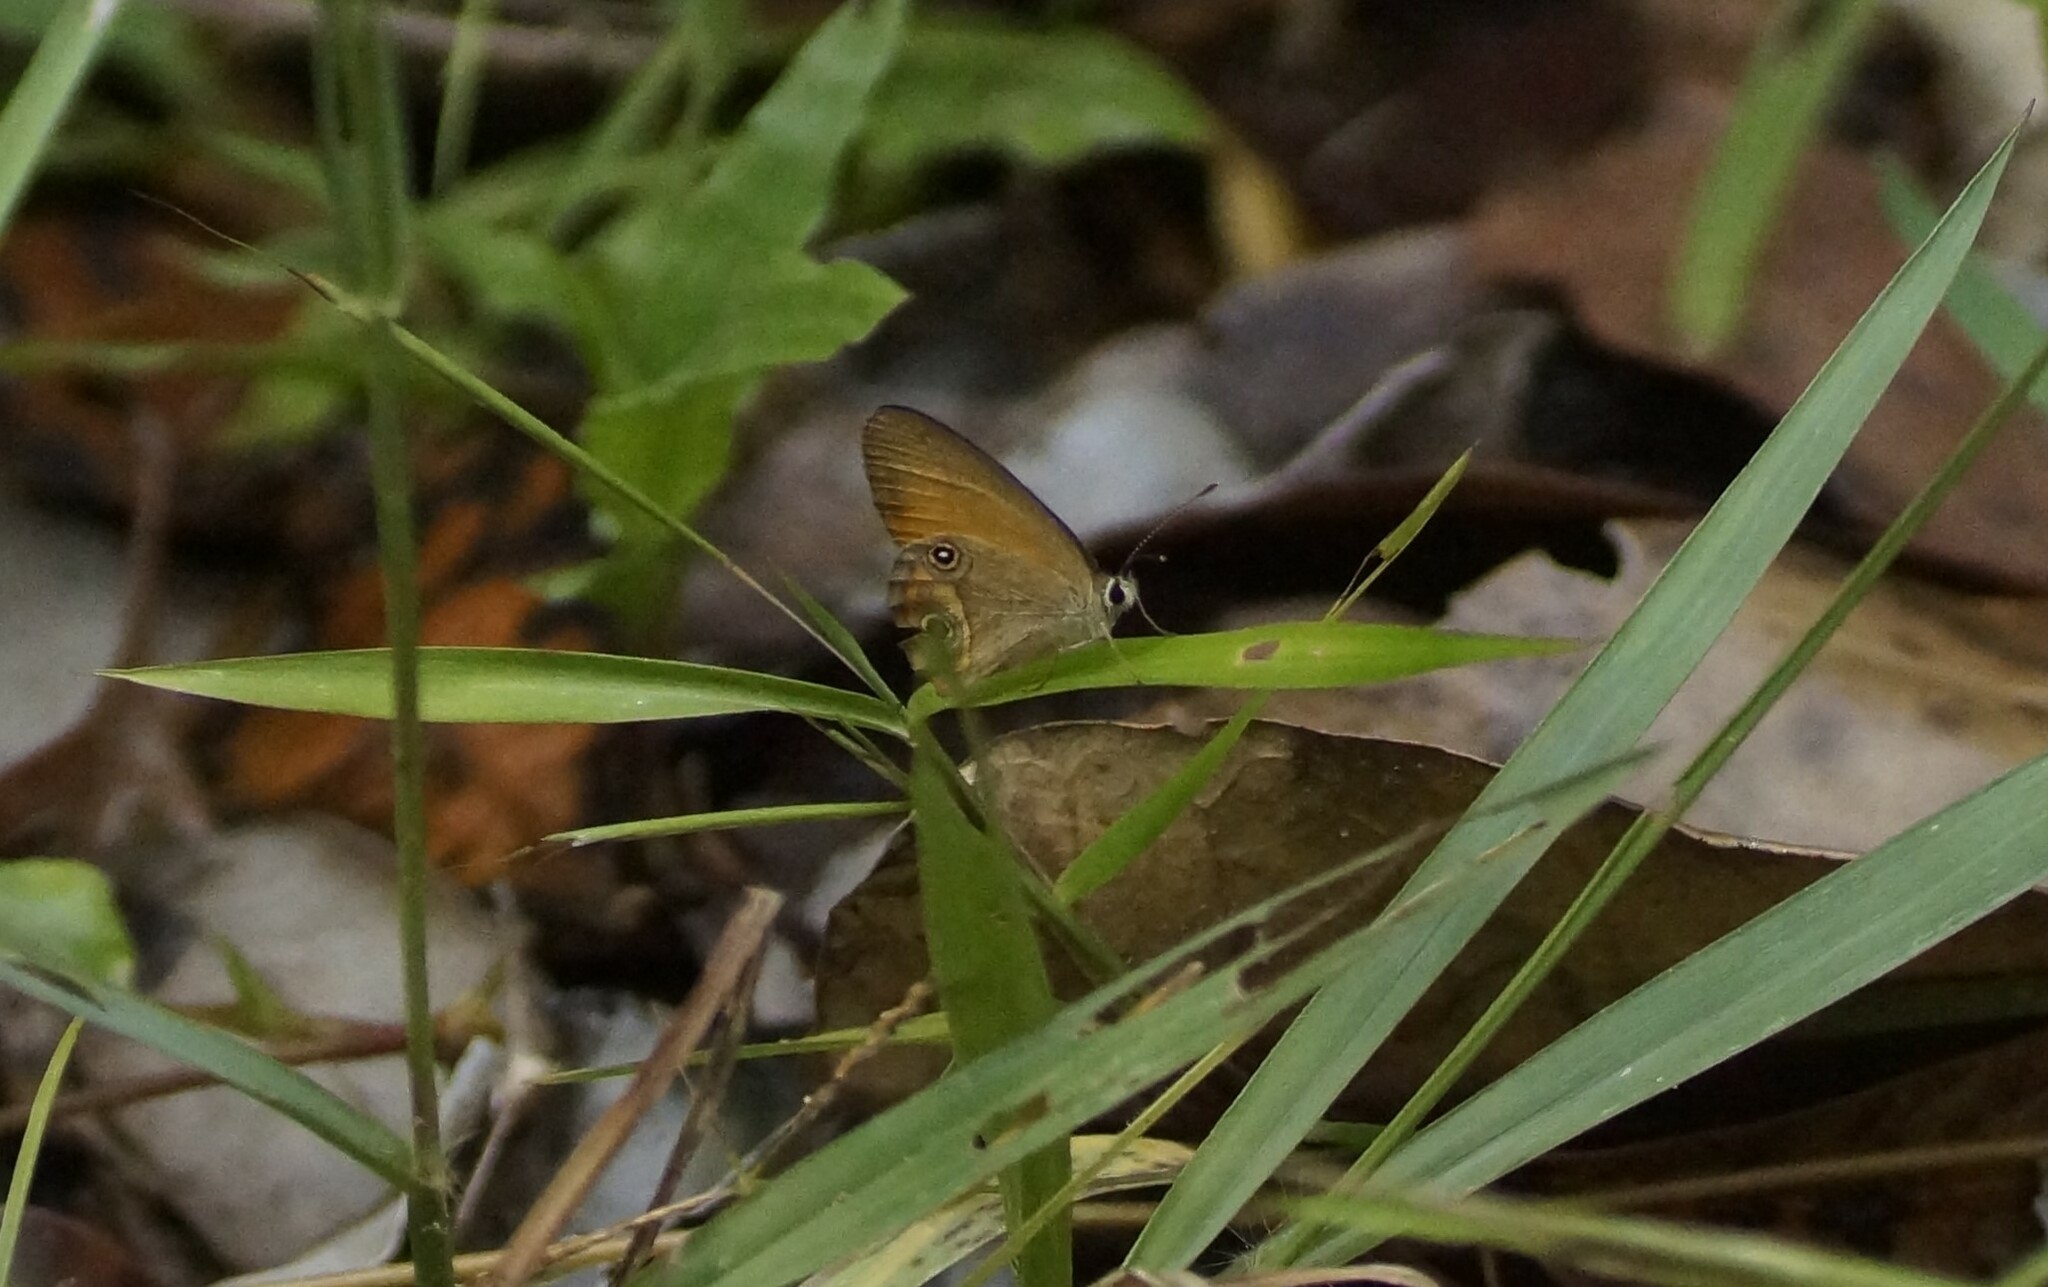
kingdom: Animalia
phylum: Arthropoda
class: Insecta
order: Lepidoptera
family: Nymphalidae
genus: Hypocysta
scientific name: Hypocysta adiante
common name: Orange ringlet
